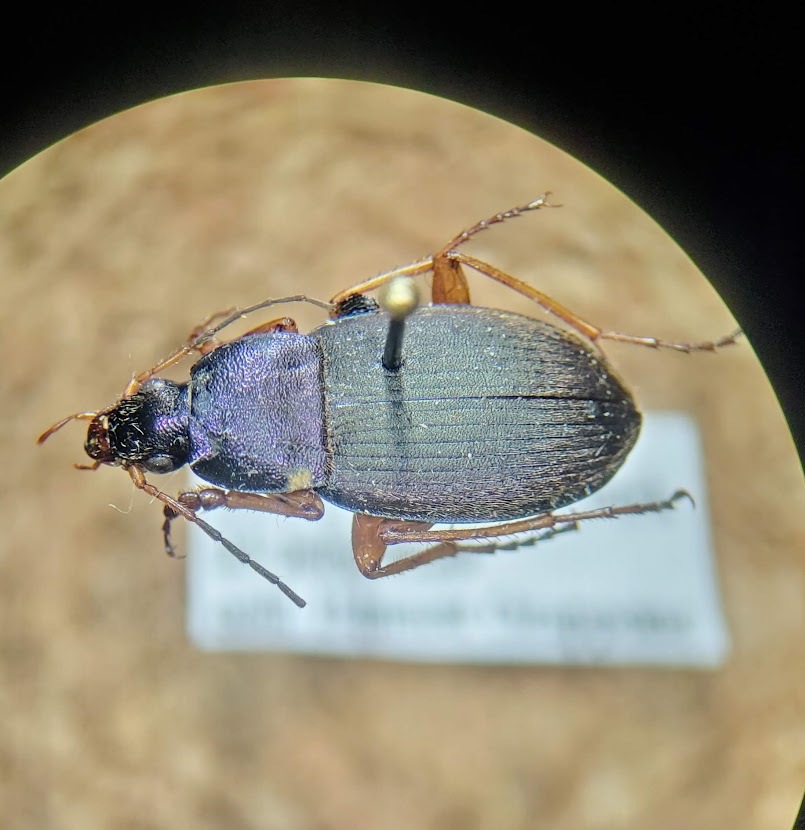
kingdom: Animalia
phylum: Arthropoda
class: Insecta
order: Coleoptera
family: Carabidae
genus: Chlaenius
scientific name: Chlaenius platyderus
